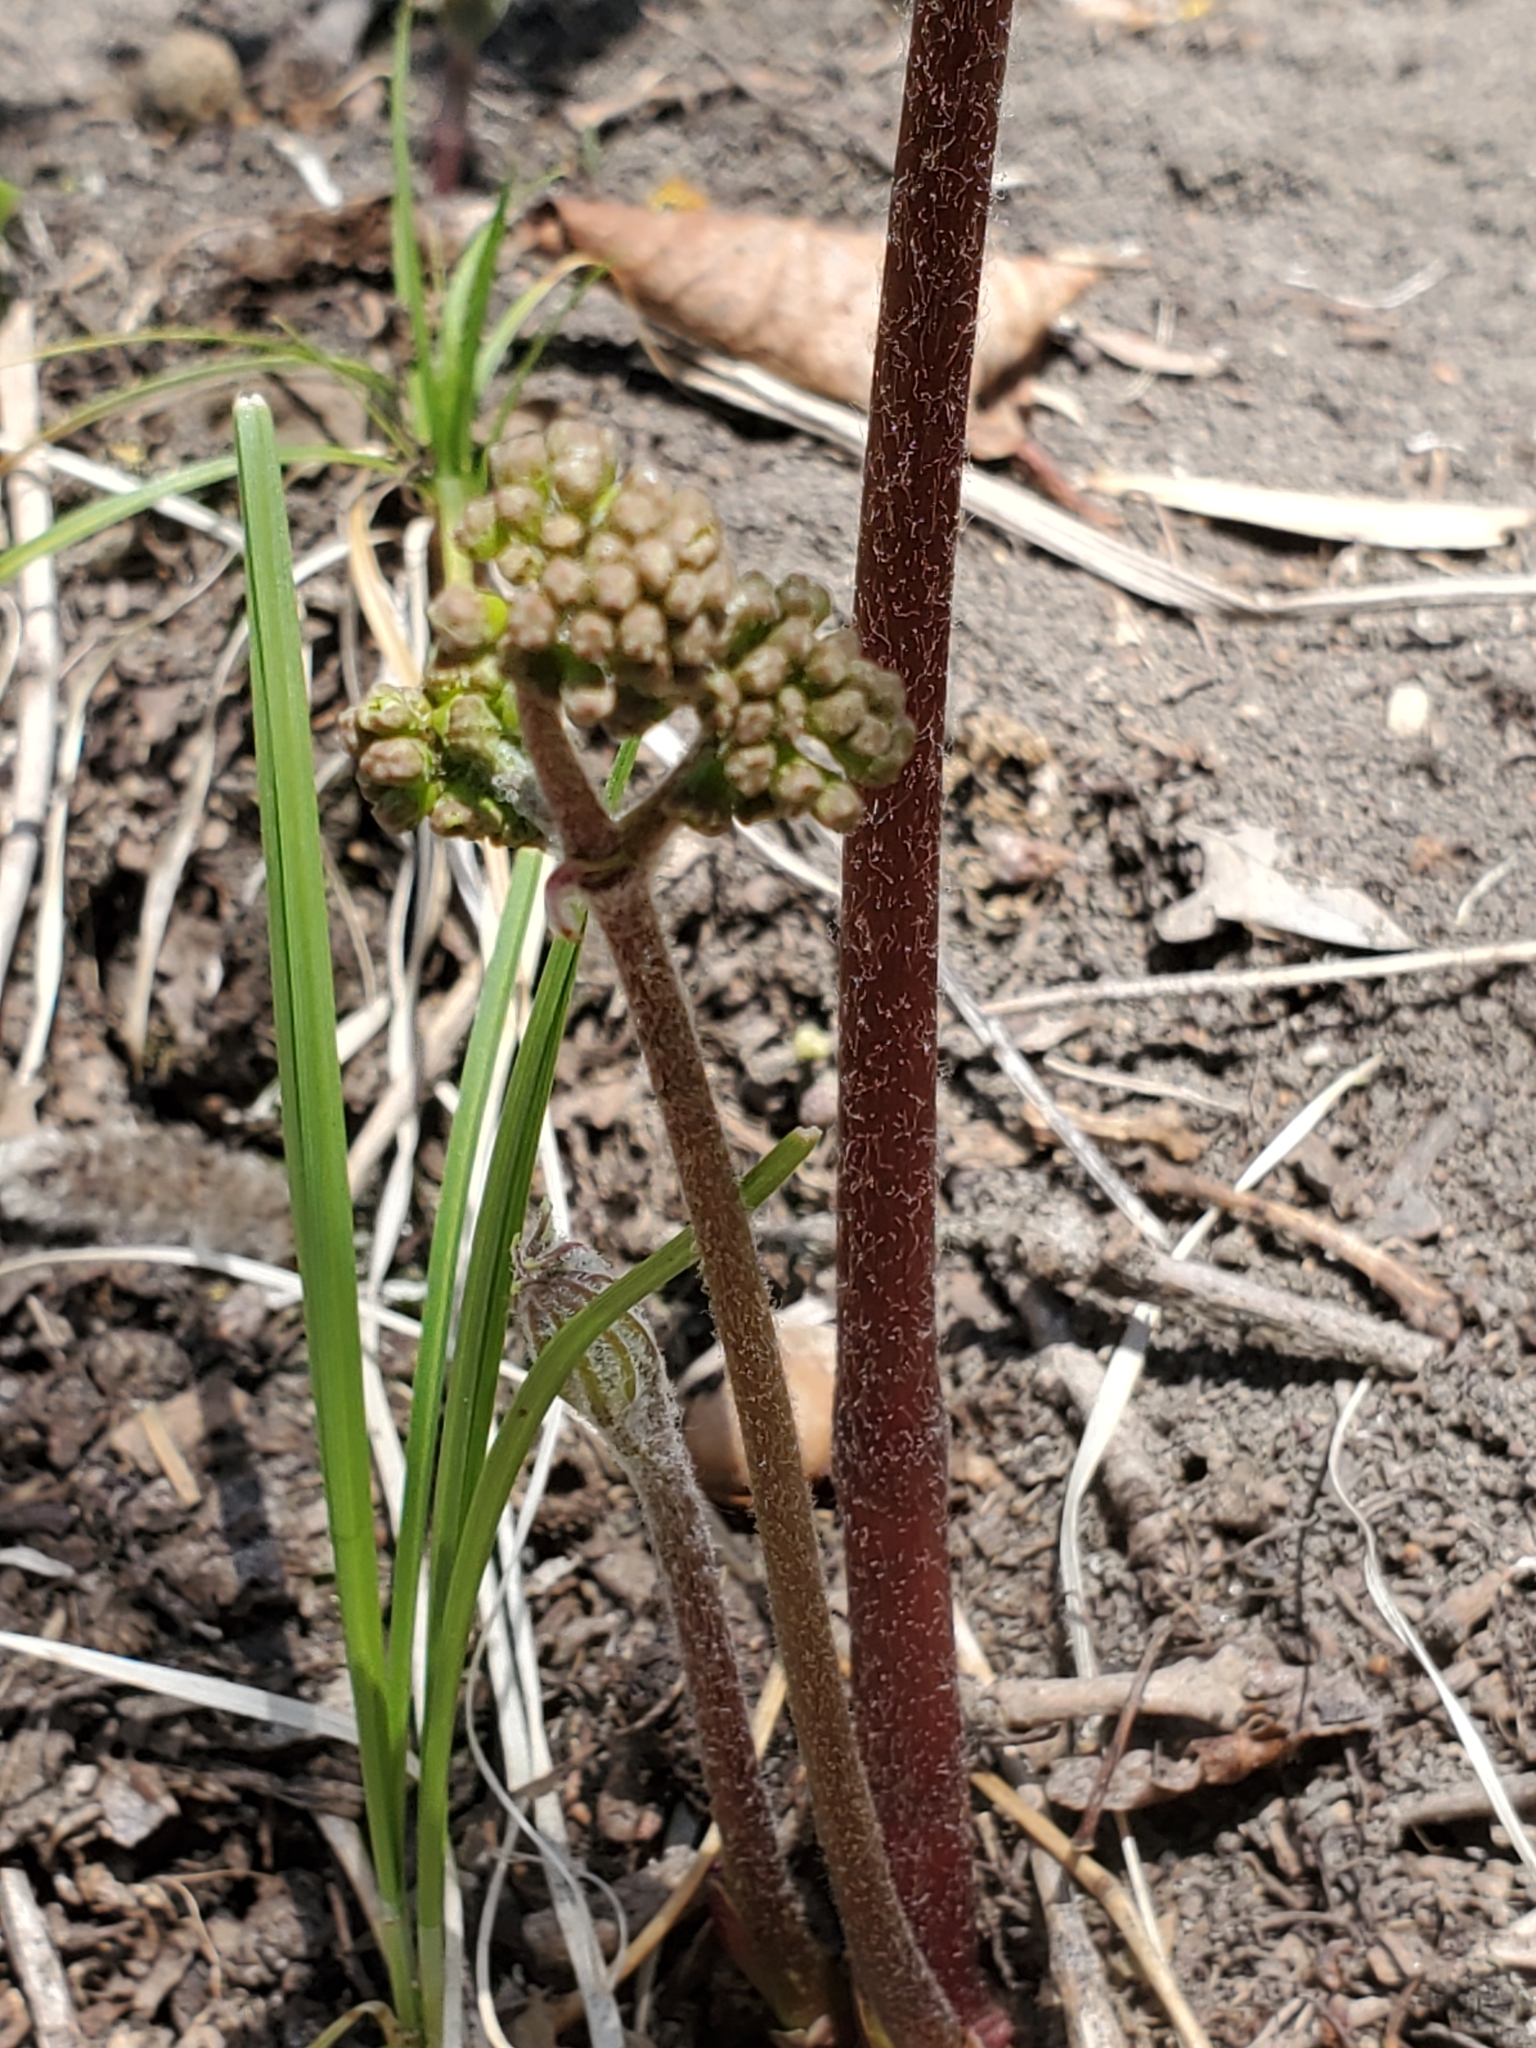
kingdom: Plantae
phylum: Tracheophyta
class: Magnoliopsida
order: Apiales
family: Araliaceae
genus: Aralia
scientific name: Aralia nudicaulis
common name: Wild sarsaparilla
